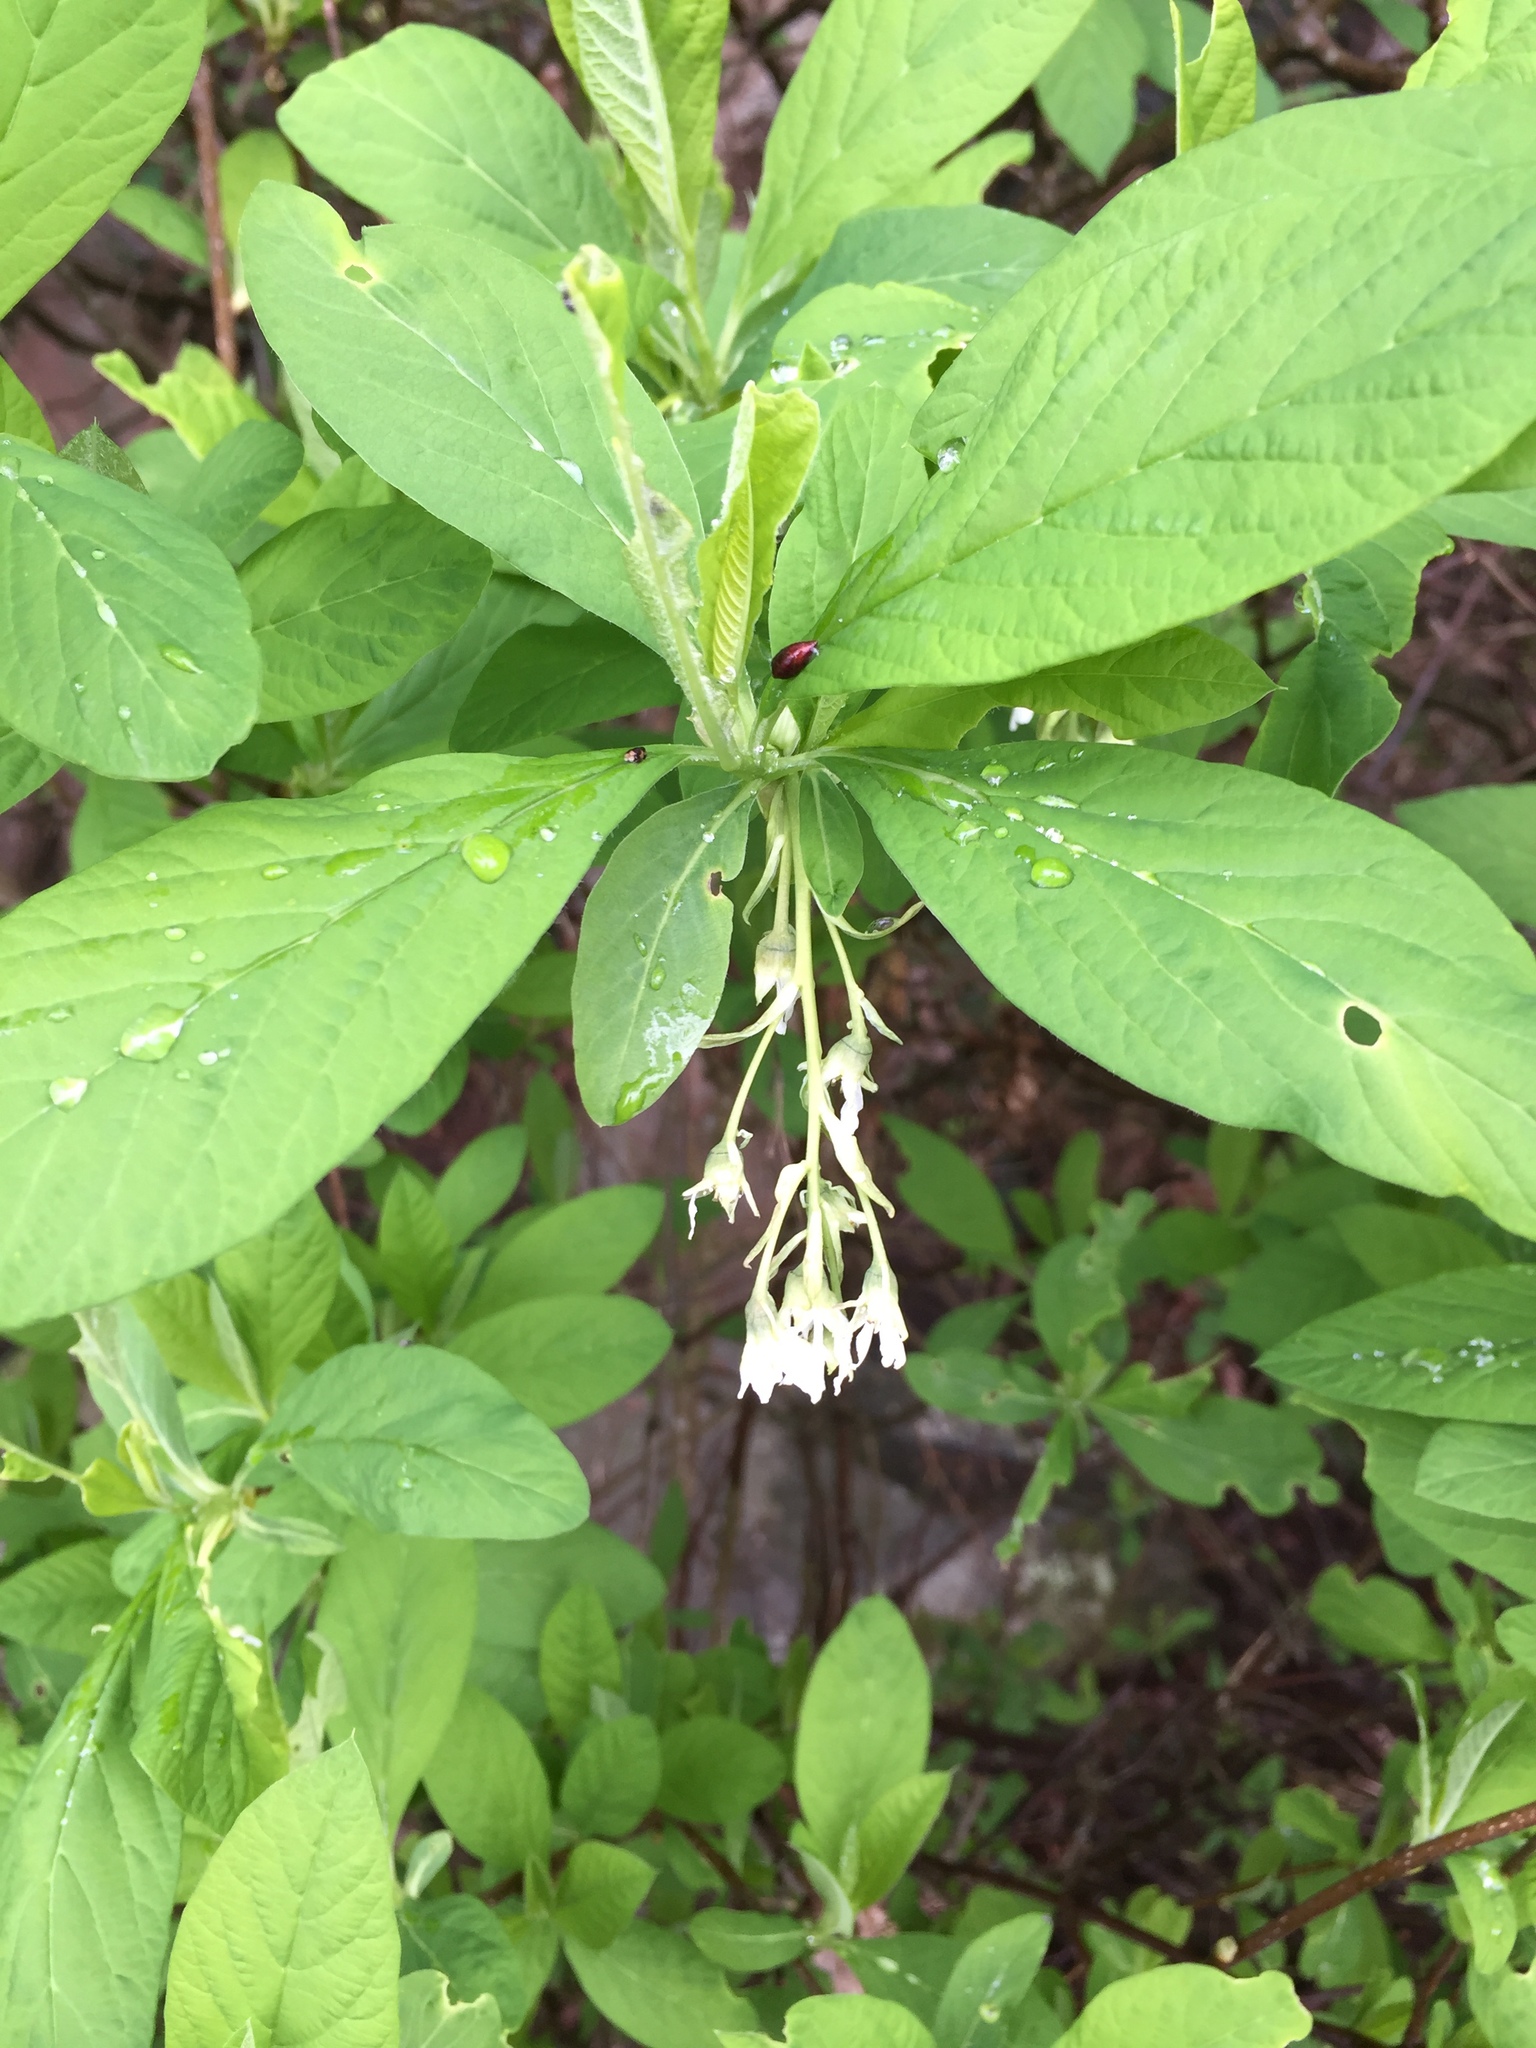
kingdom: Plantae
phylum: Tracheophyta
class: Magnoliopsida
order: Rosales
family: Rosaceae
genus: Oemleria
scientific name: Oemleria cerasiformis
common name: Osoberry
